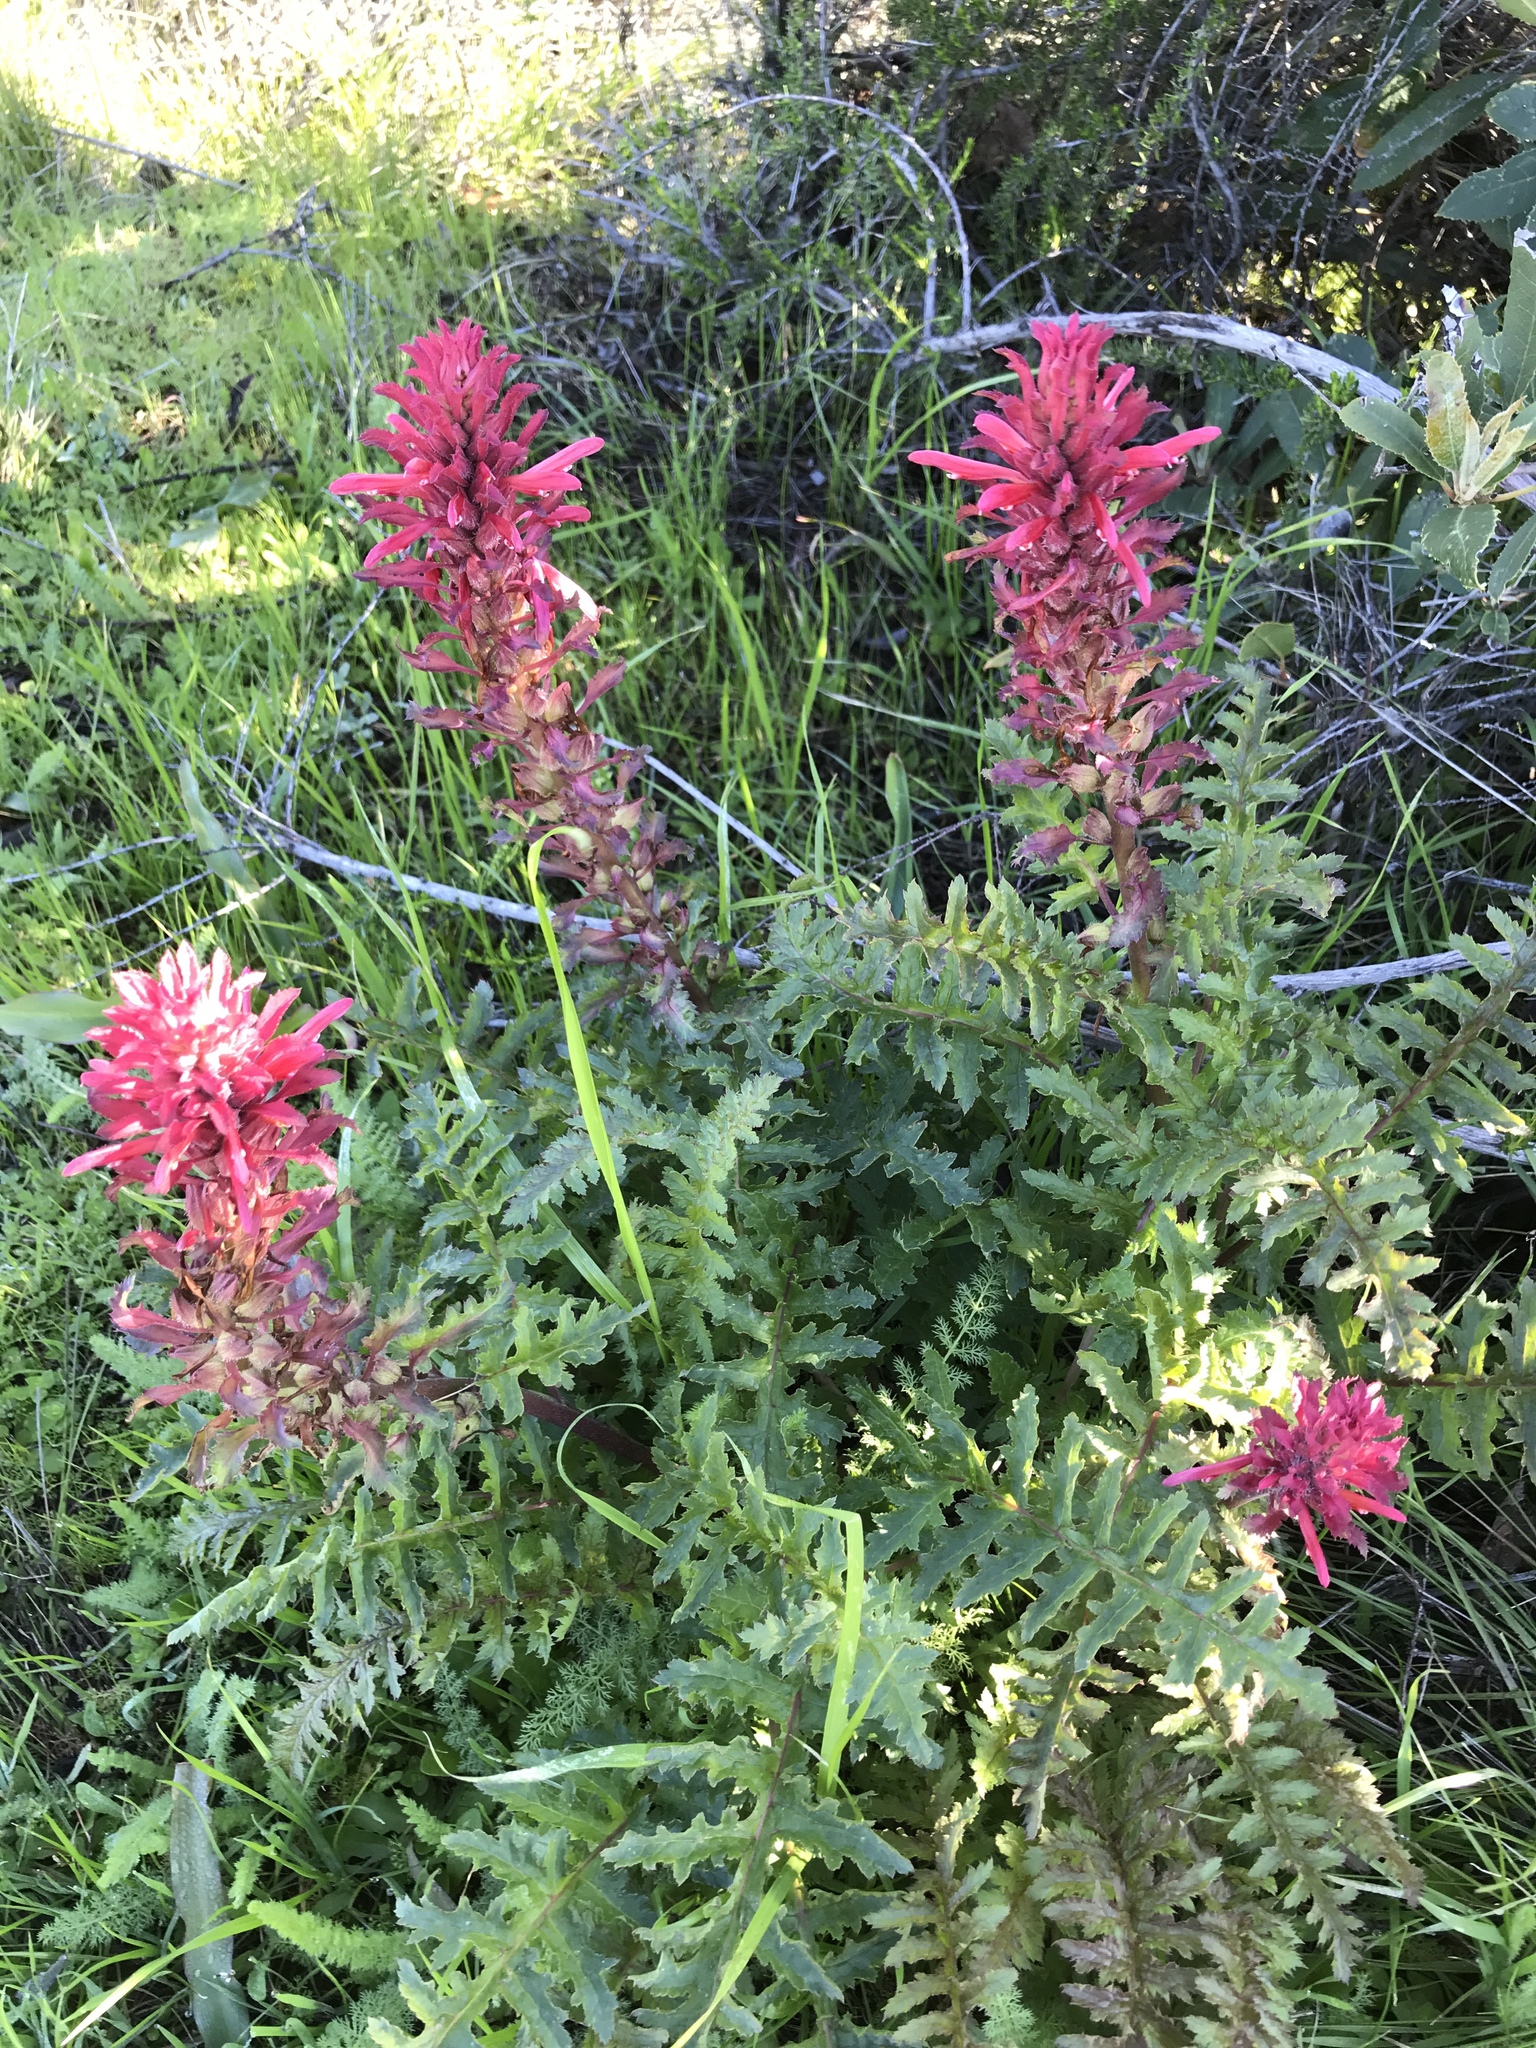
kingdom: Plantae
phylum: Tracheophyta
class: Magnoliopsida
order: Lamiales
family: Orobanchaceae
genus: Pedicularis
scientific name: Pedicularis densiflora
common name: Indian warrior
